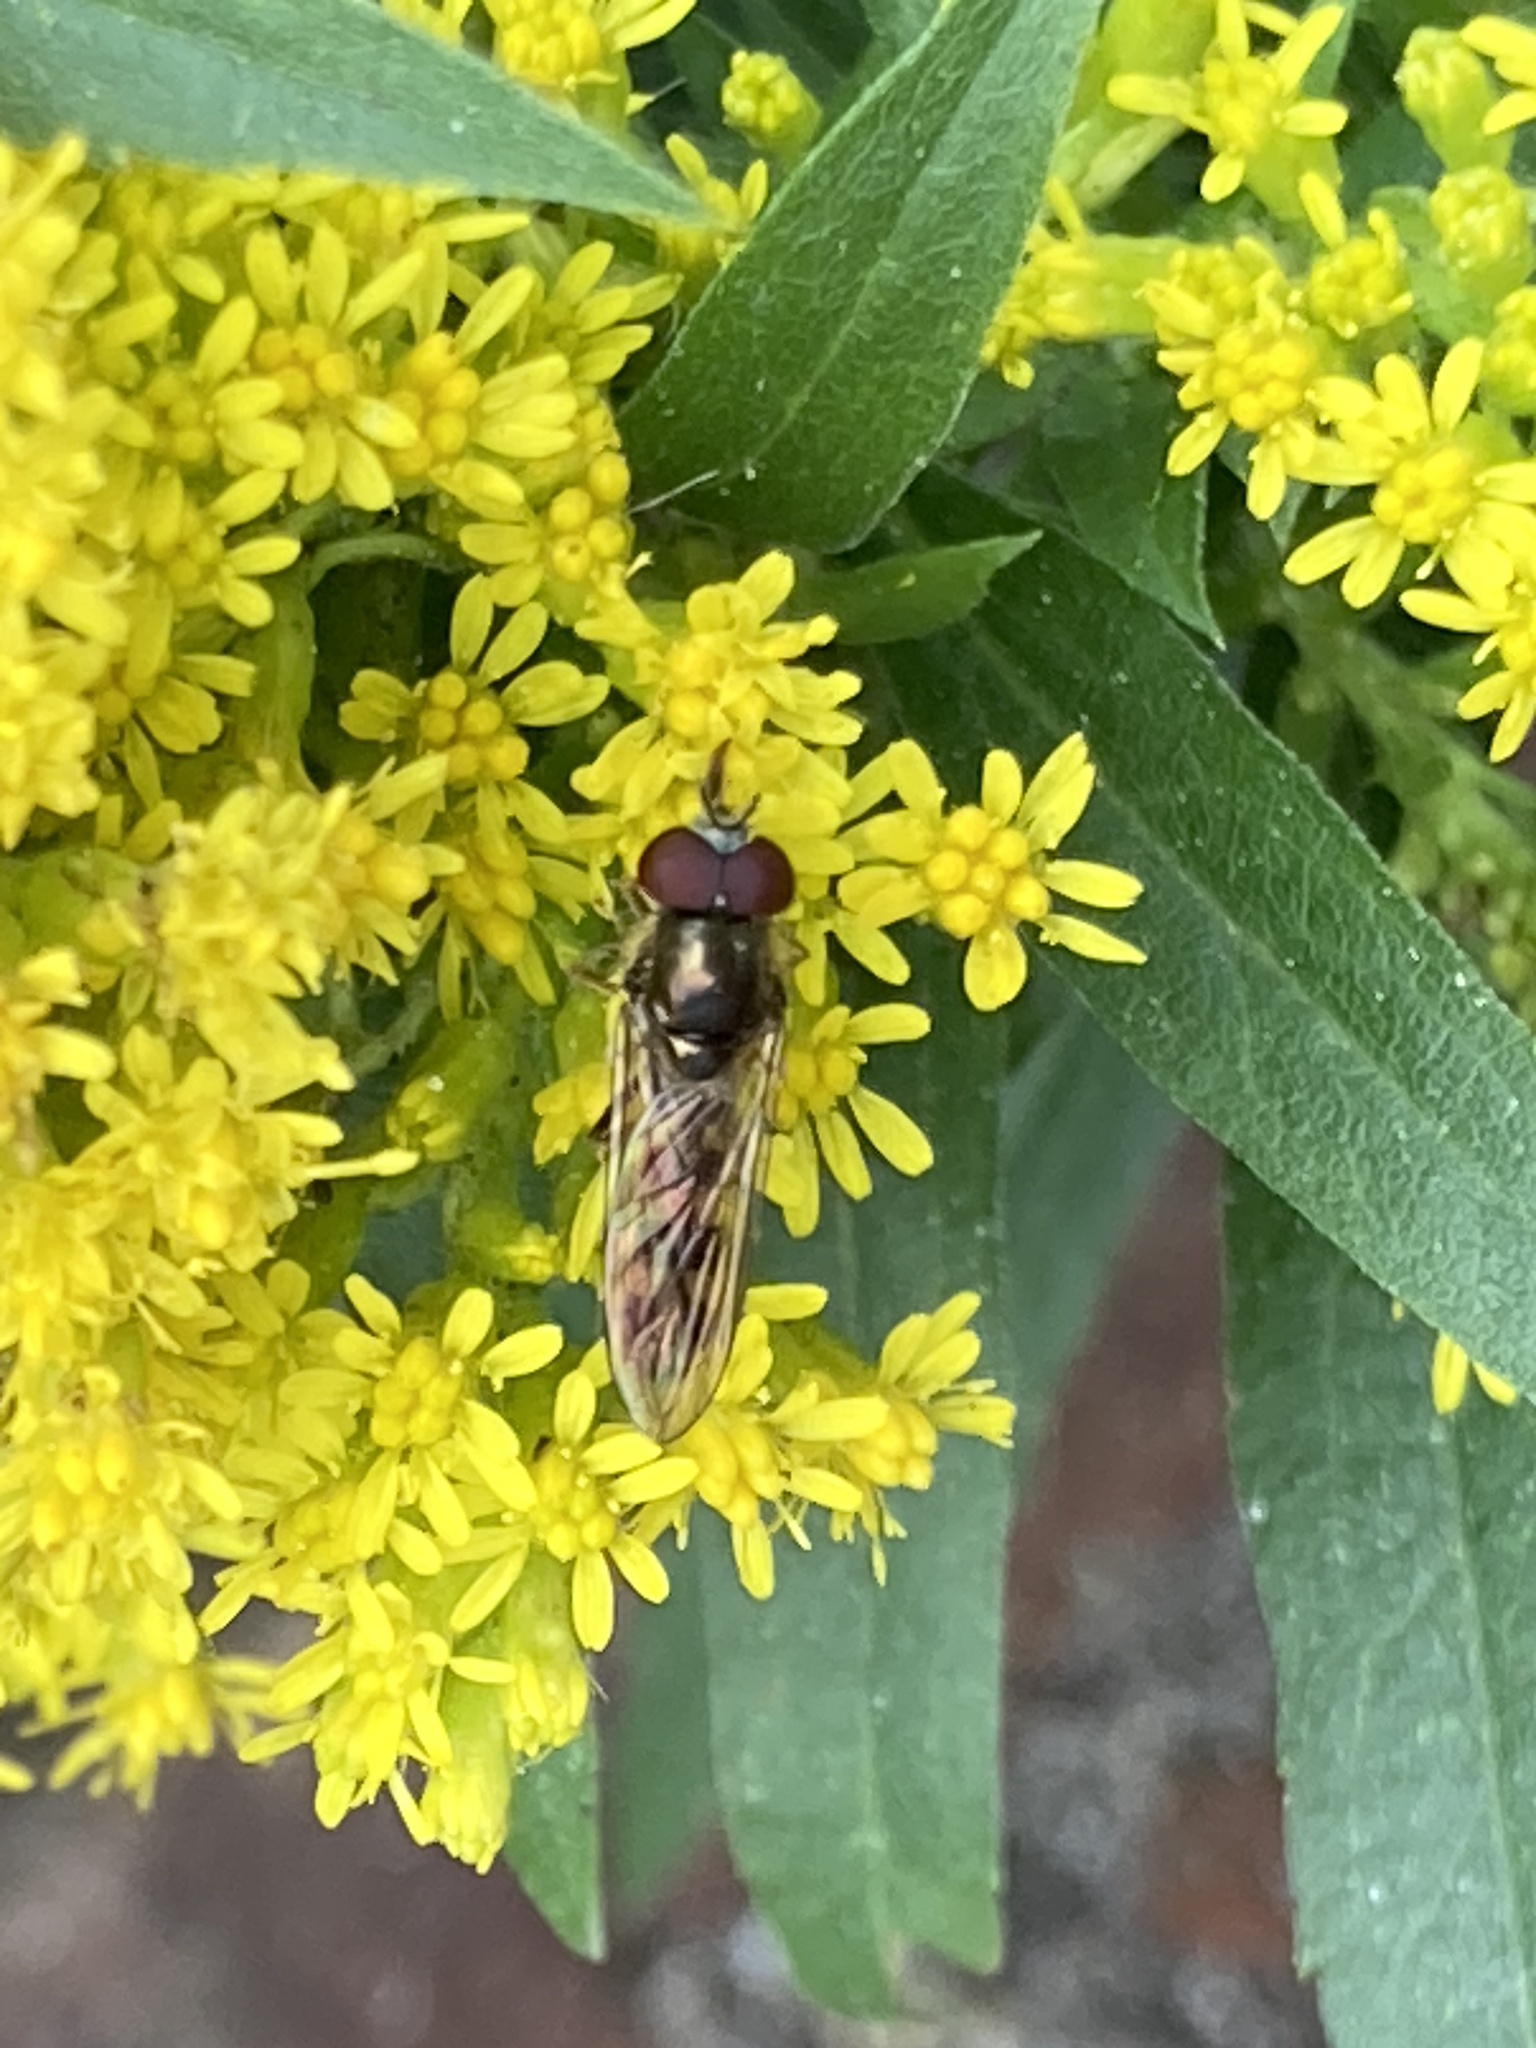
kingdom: Animalia
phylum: Arthropoda
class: Insecta
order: Diptera
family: Syrphidae
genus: Platycheirus
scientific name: Platycheirus scutatus
